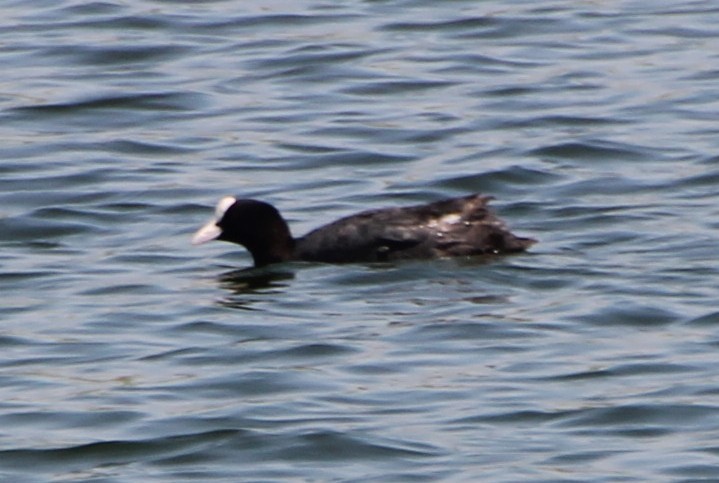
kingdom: Animalia
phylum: Chordata
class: Aves
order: Gruiformes
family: Rallidae
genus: Fulica
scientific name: Fulica atra
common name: Eurasian coot
